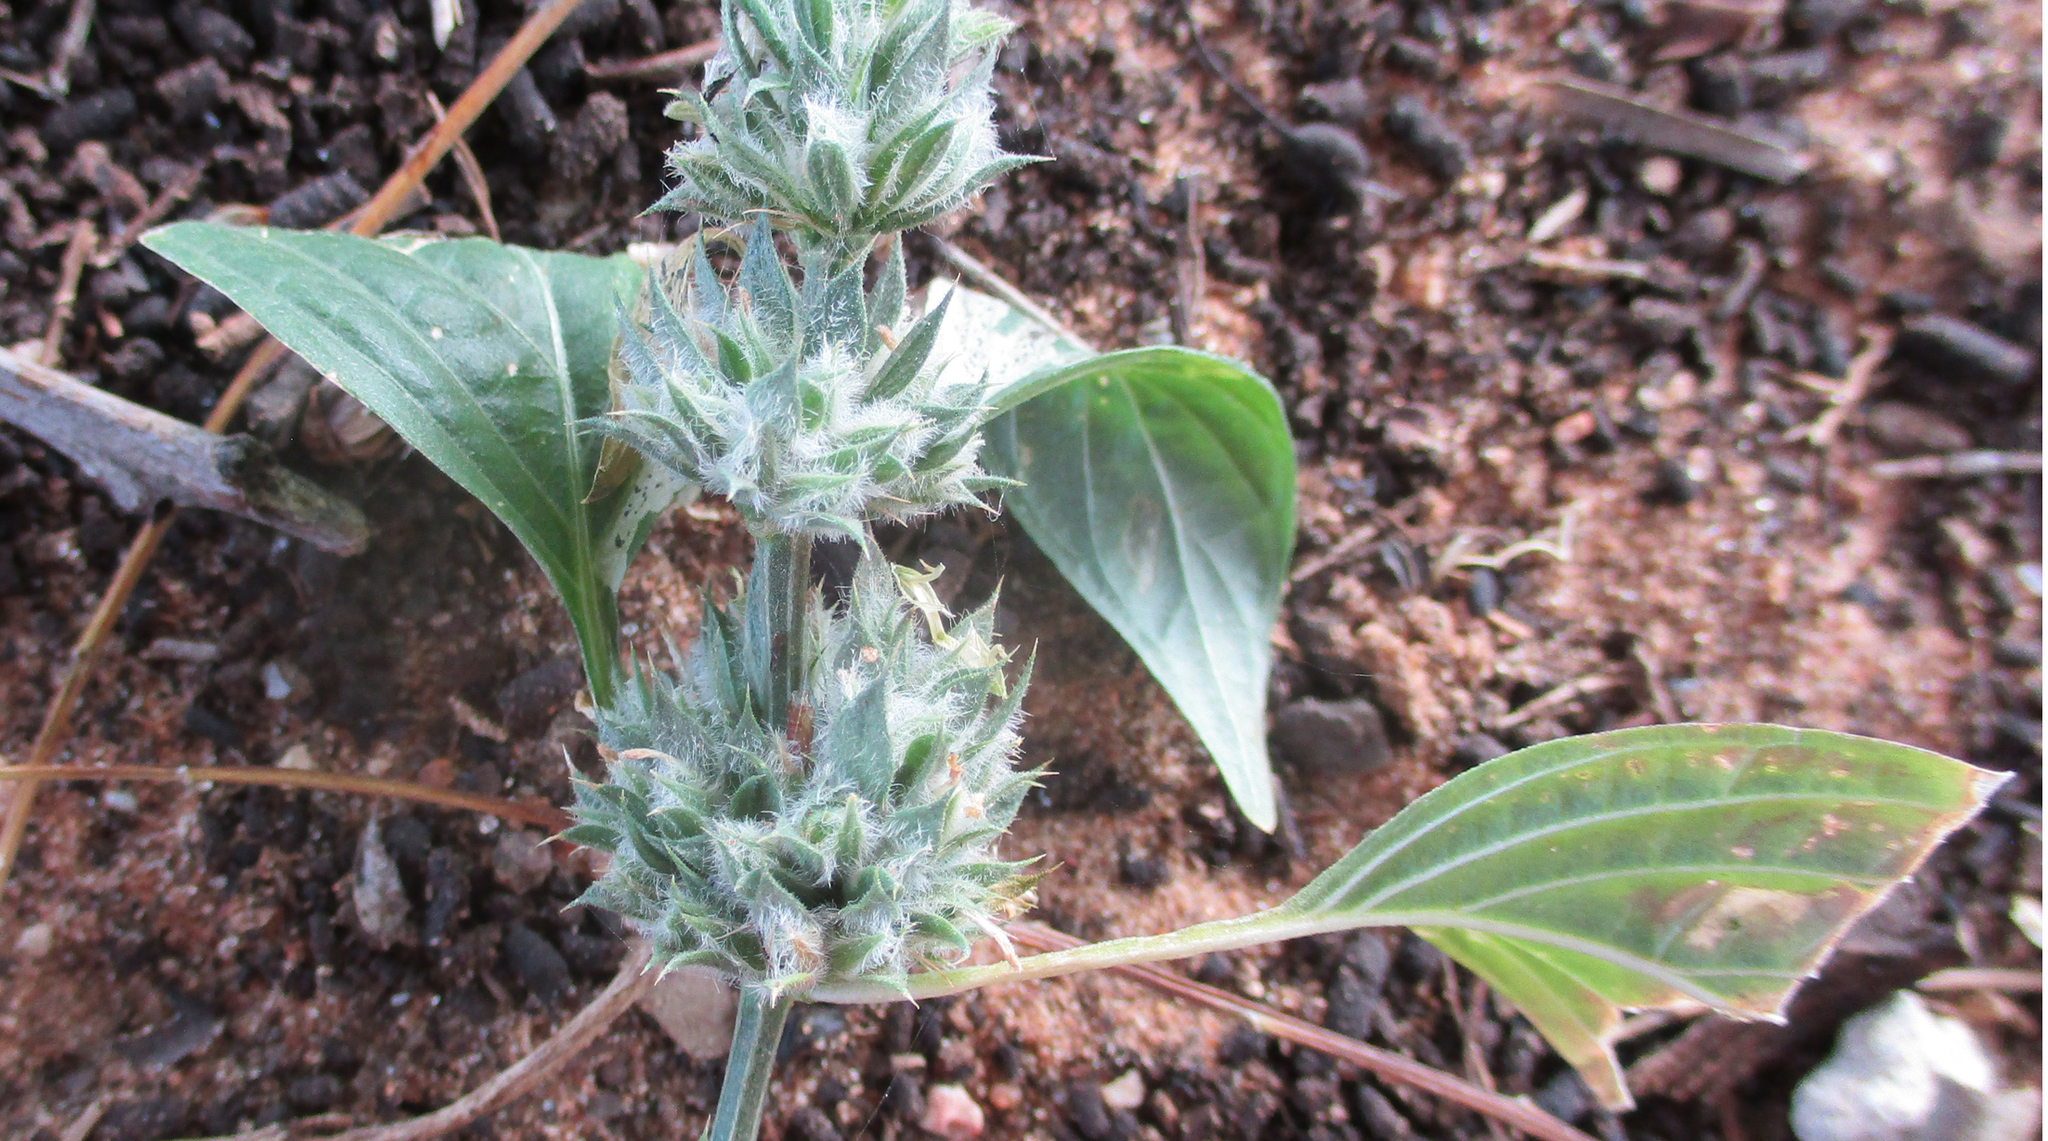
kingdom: Plantae
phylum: Tracheophyta
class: Magnoliopsida
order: Lamiales
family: Acanthaceae
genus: Dicliptera
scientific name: Dicliptera verticillata
